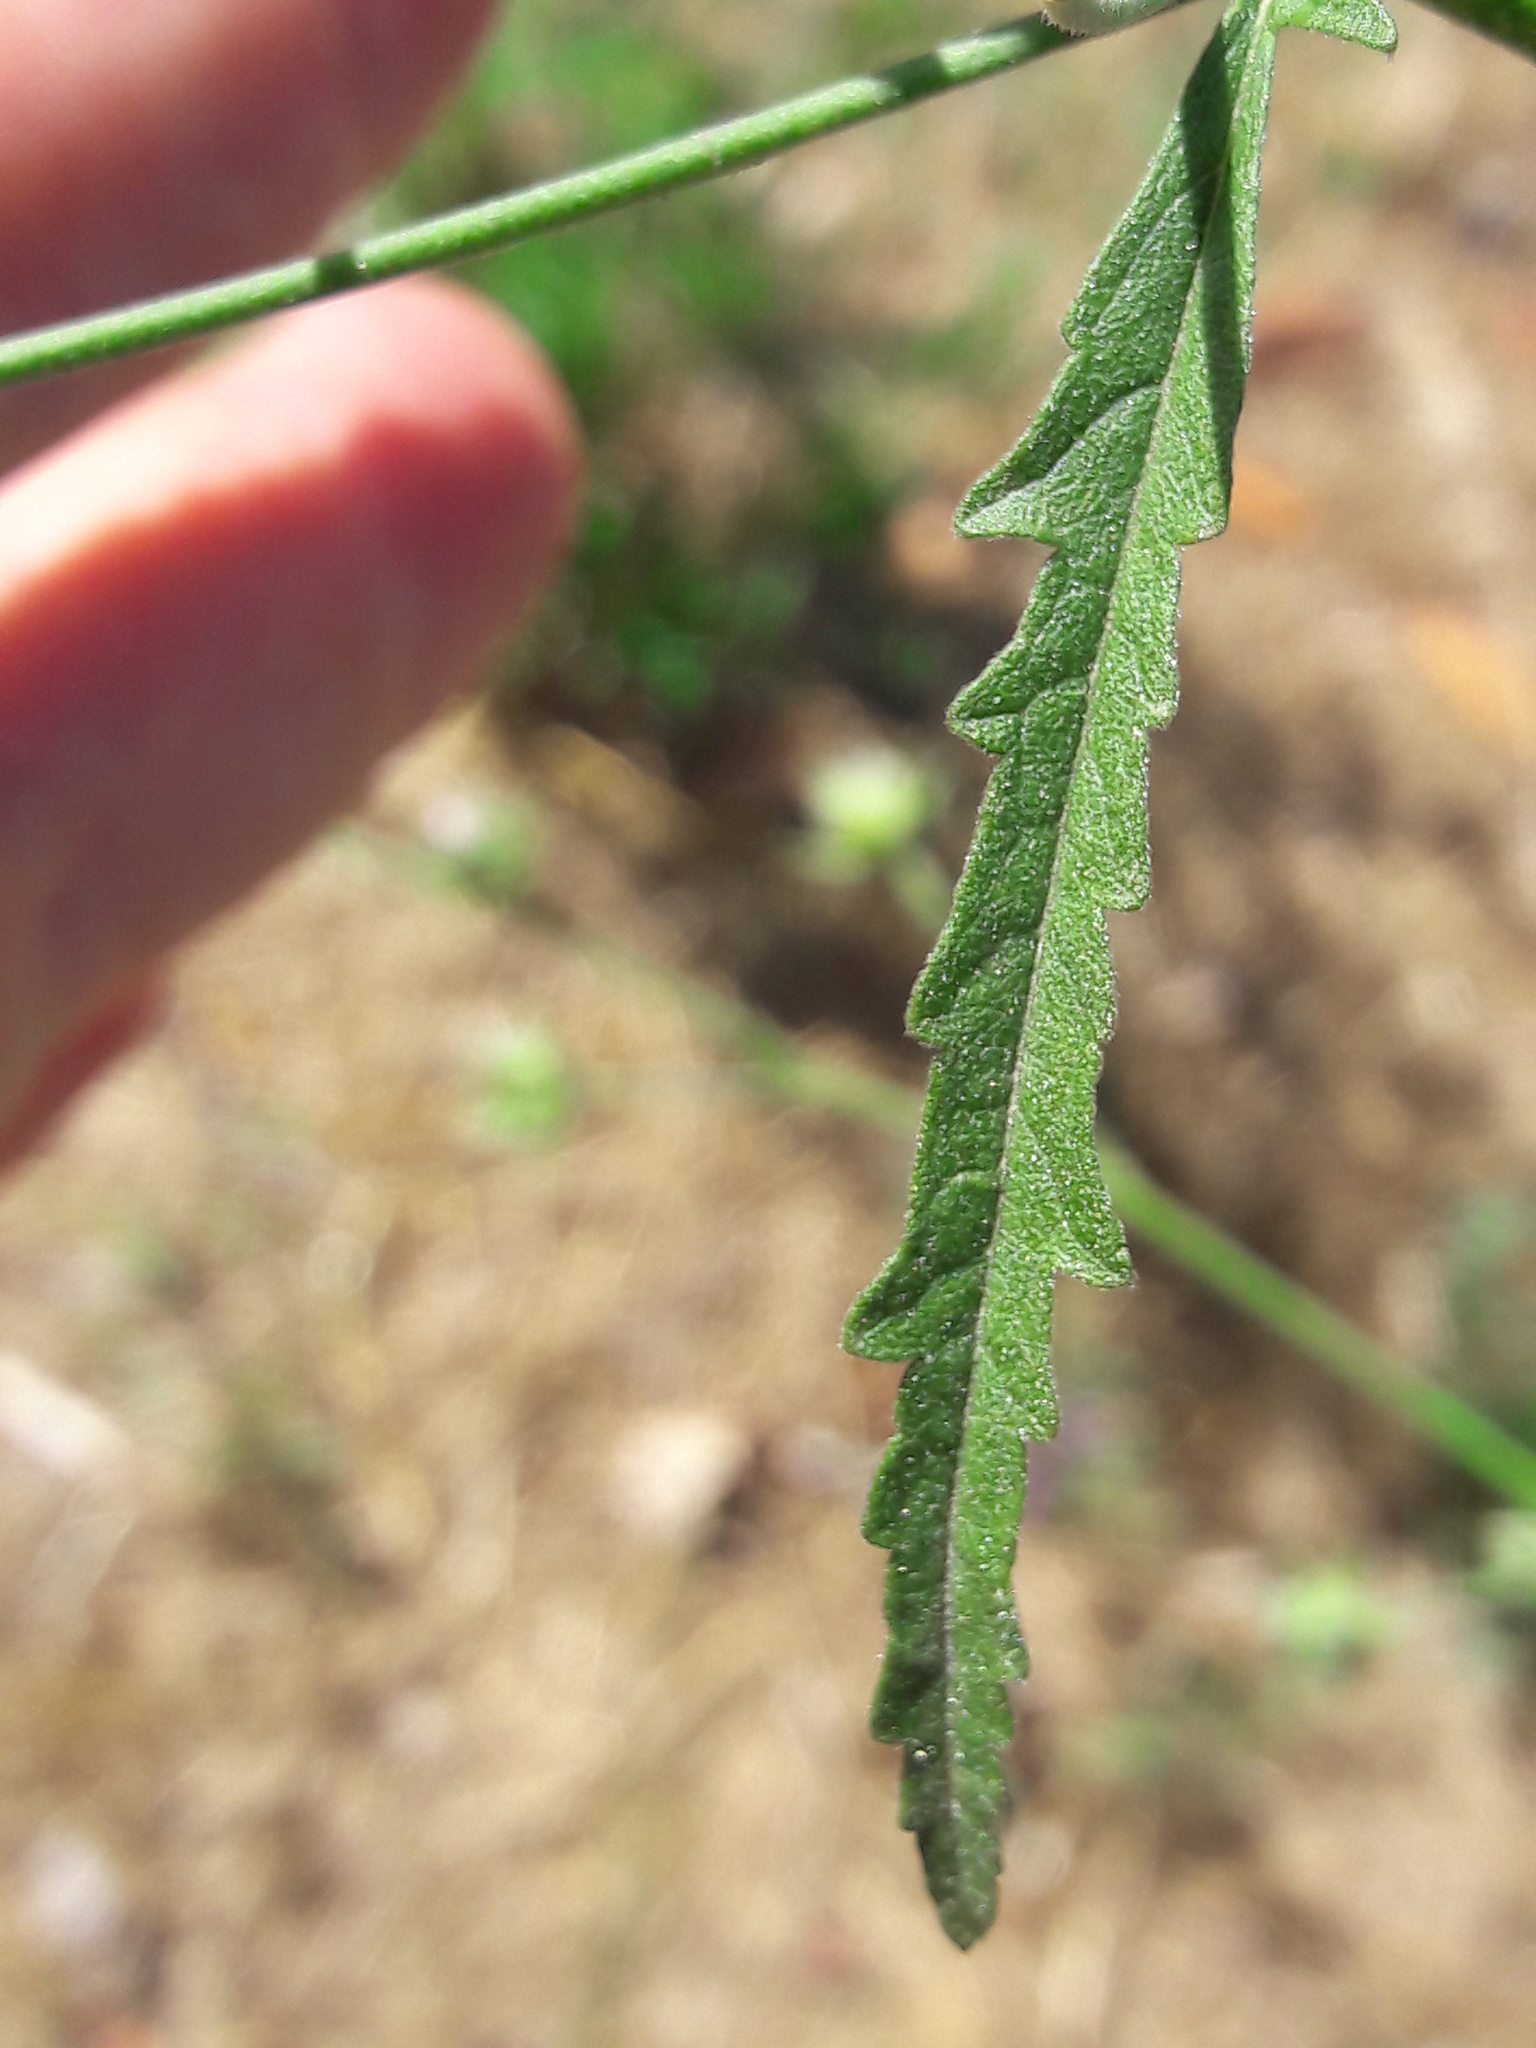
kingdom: Plantae
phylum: Tracheophyta
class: Magnoliopsida
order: Malvales
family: Malvaceae
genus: Althaea
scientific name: Althaea cannabina
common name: Palm-leaf marshmallow
